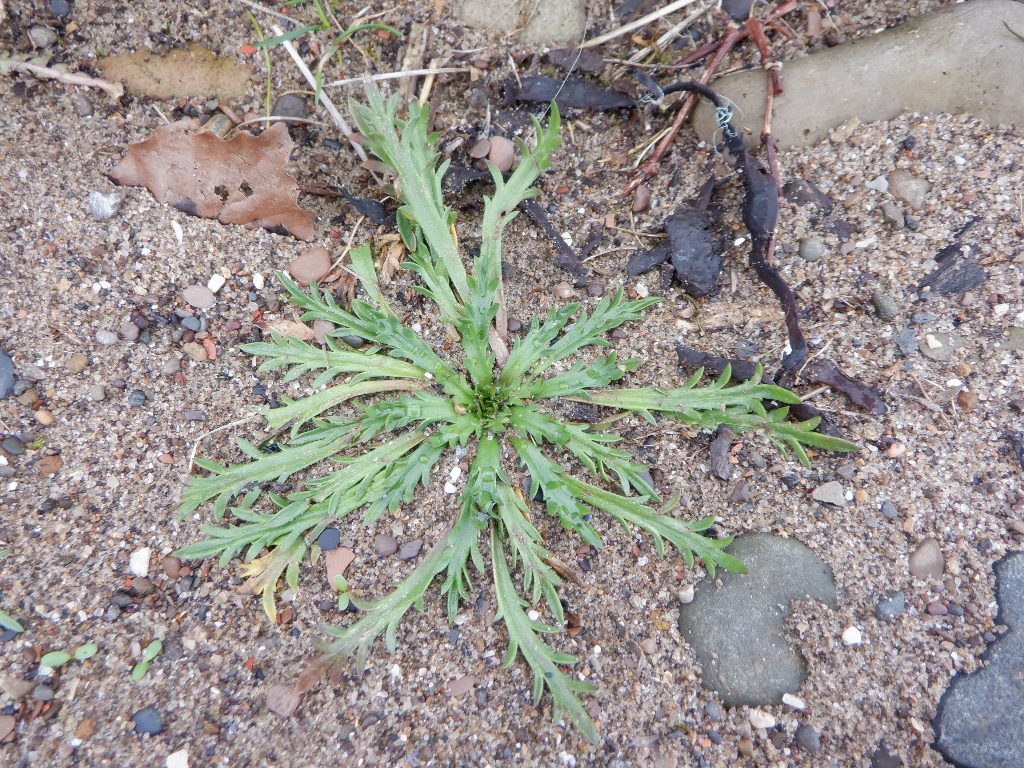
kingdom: Plantae
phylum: Tracheophyta
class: Magnoliopsida
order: Lamiales
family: Plantaginaceae
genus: Plantago
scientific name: Plantago coronopus
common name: Buck's-horn plantain
